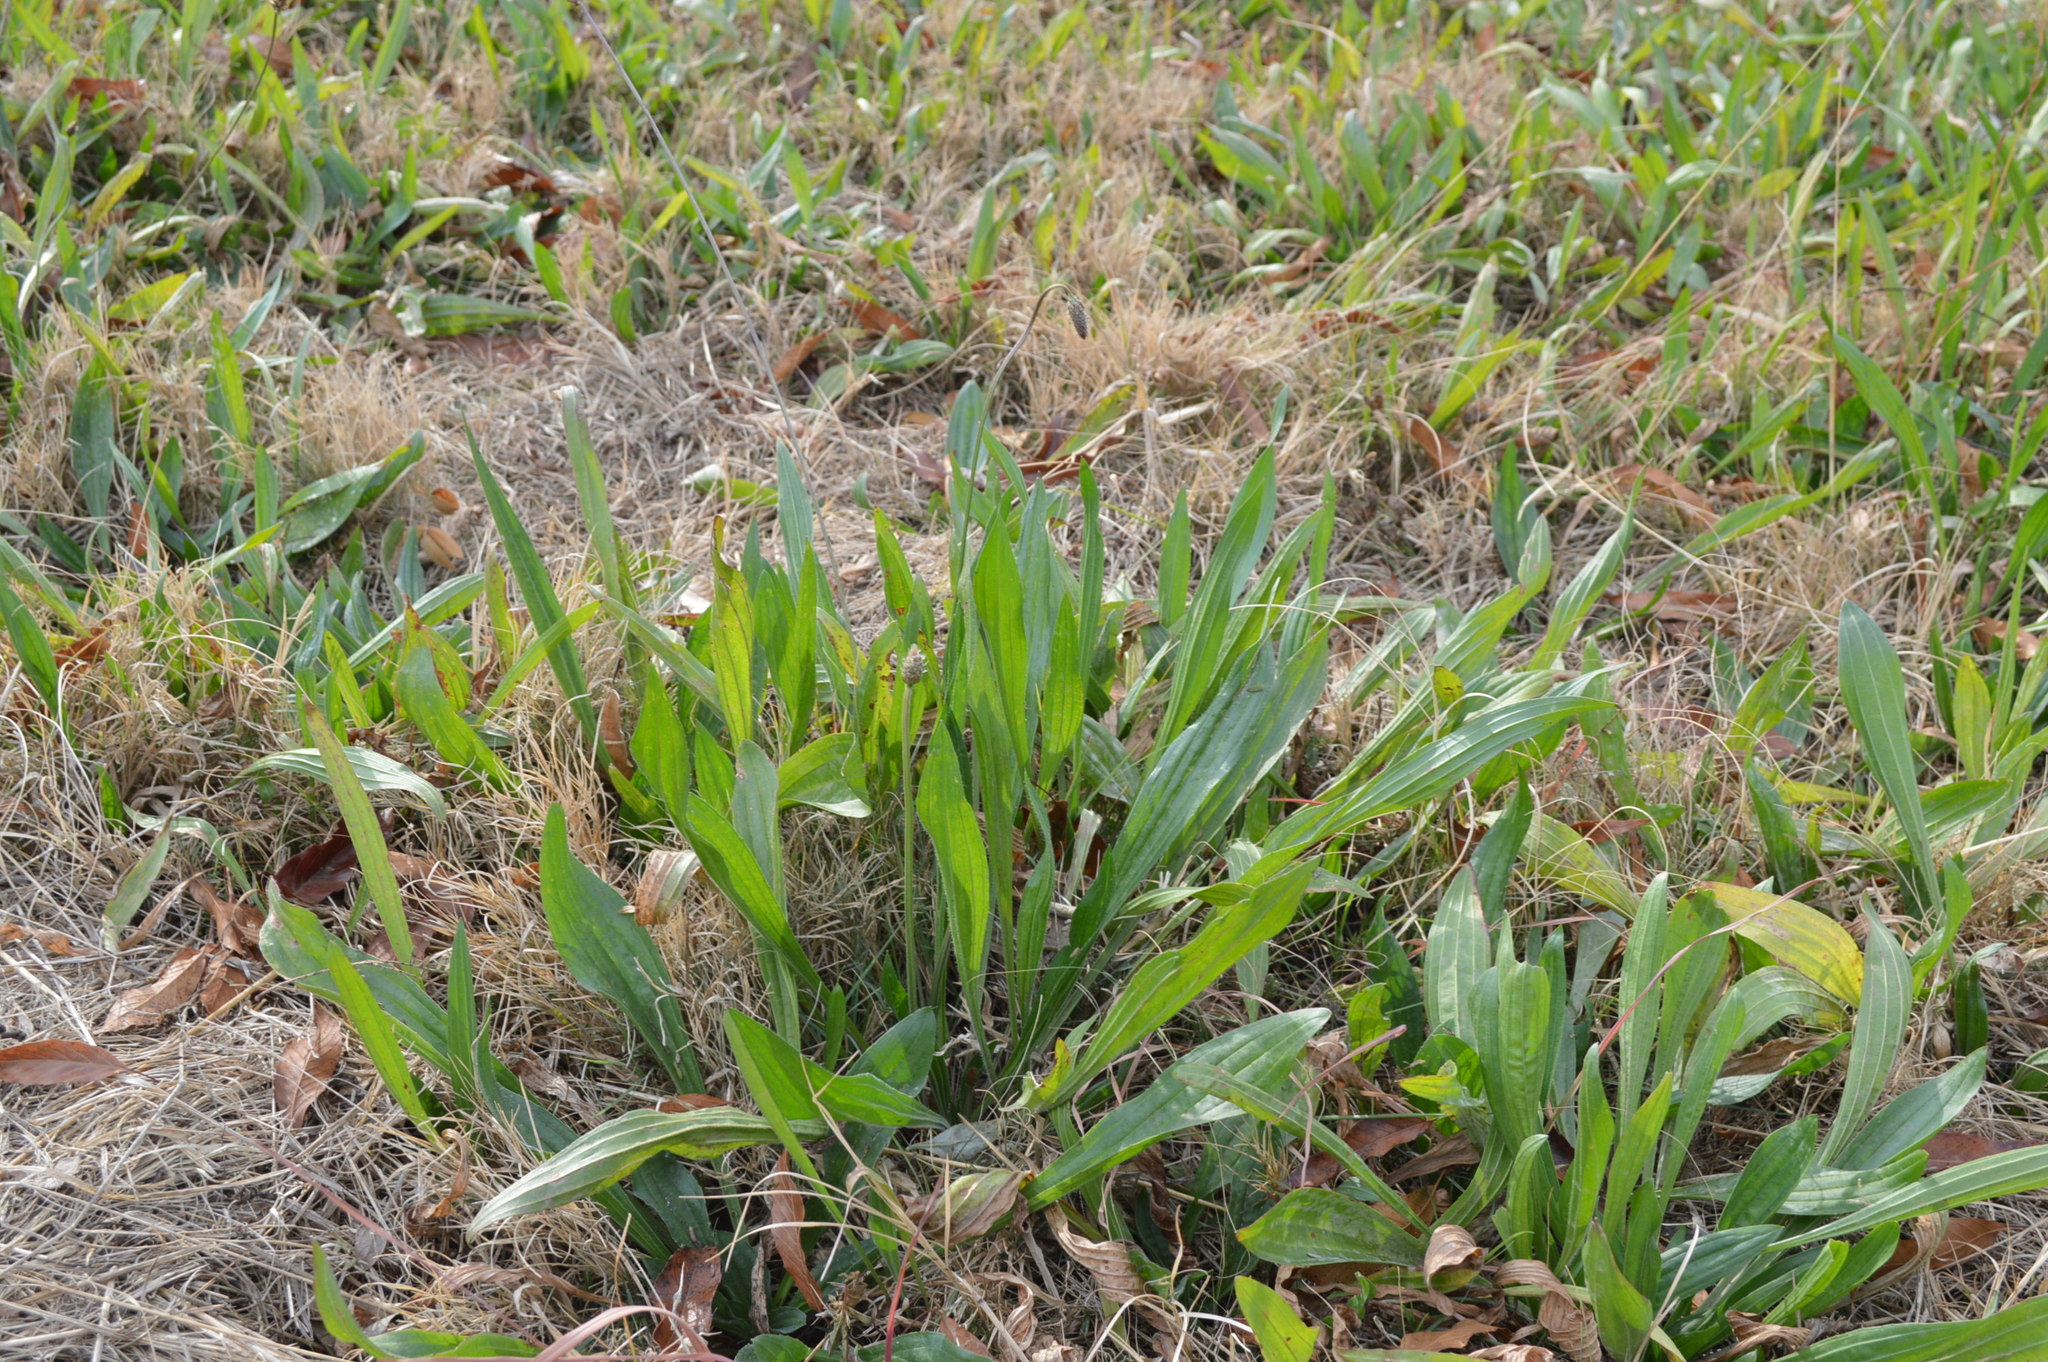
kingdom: Plantae
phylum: Tracheophyta
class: Magnoliopsida
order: Lamiales
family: Plantaginaceae
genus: Plantago
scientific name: Plantago lanceolata
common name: Ribwort plantain
